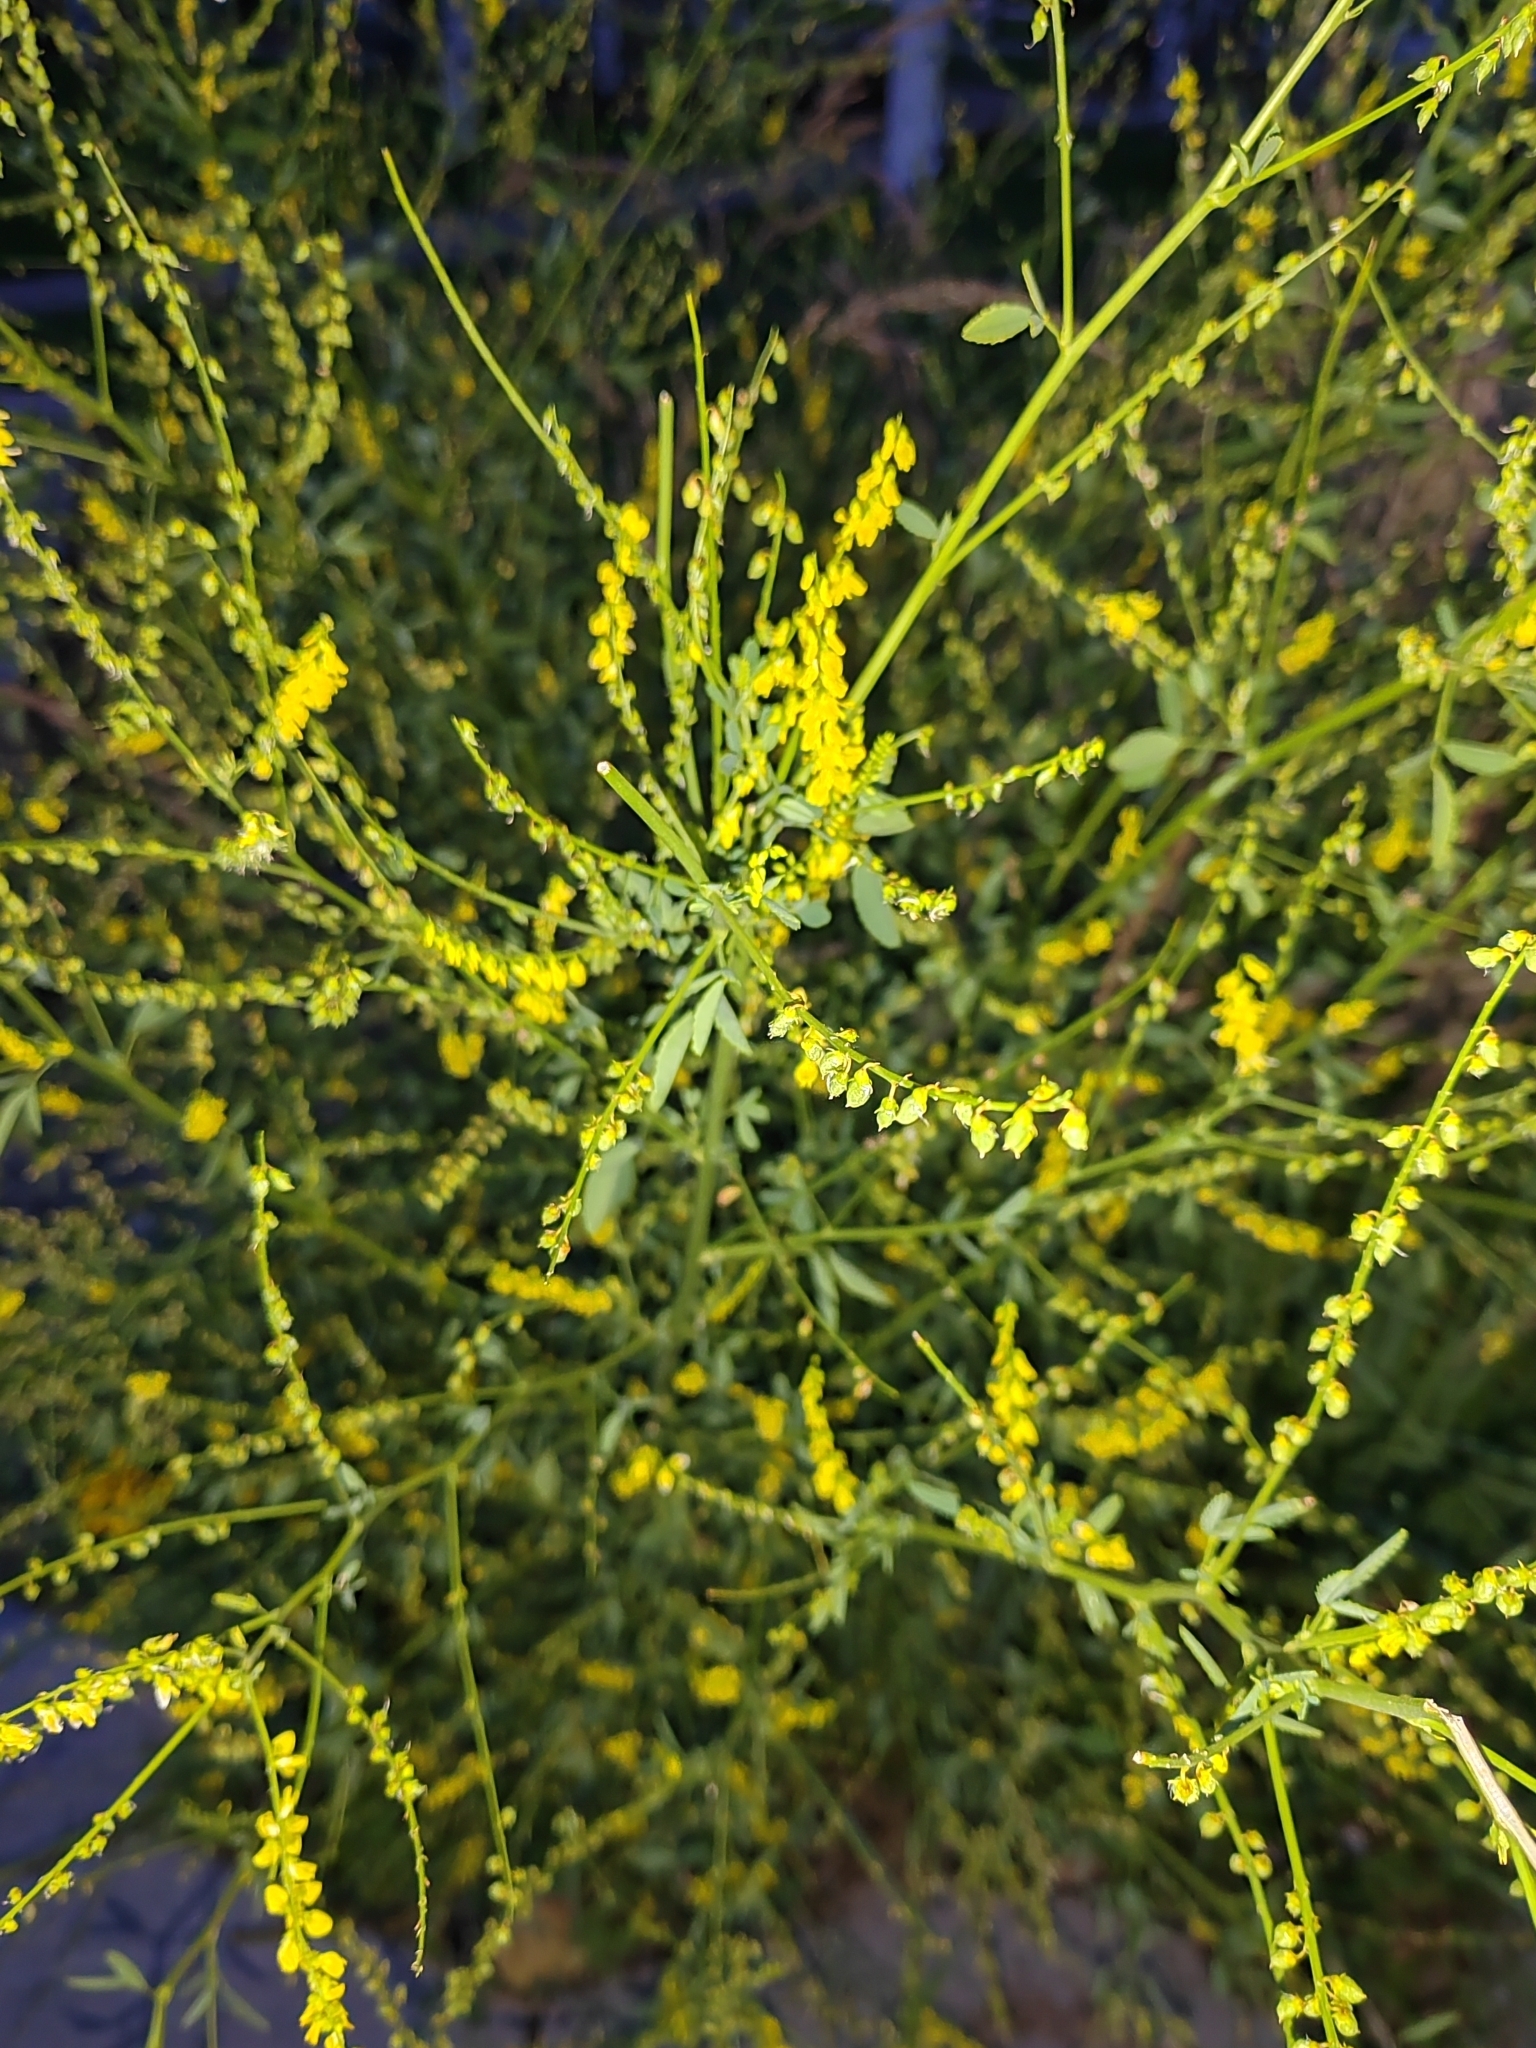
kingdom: Plantae
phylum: Tracheophyta
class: Magnoliopsida
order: Fabales
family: Fabaceae
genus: Melilotus
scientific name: Melilotus officinalis
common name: Sweetclover
